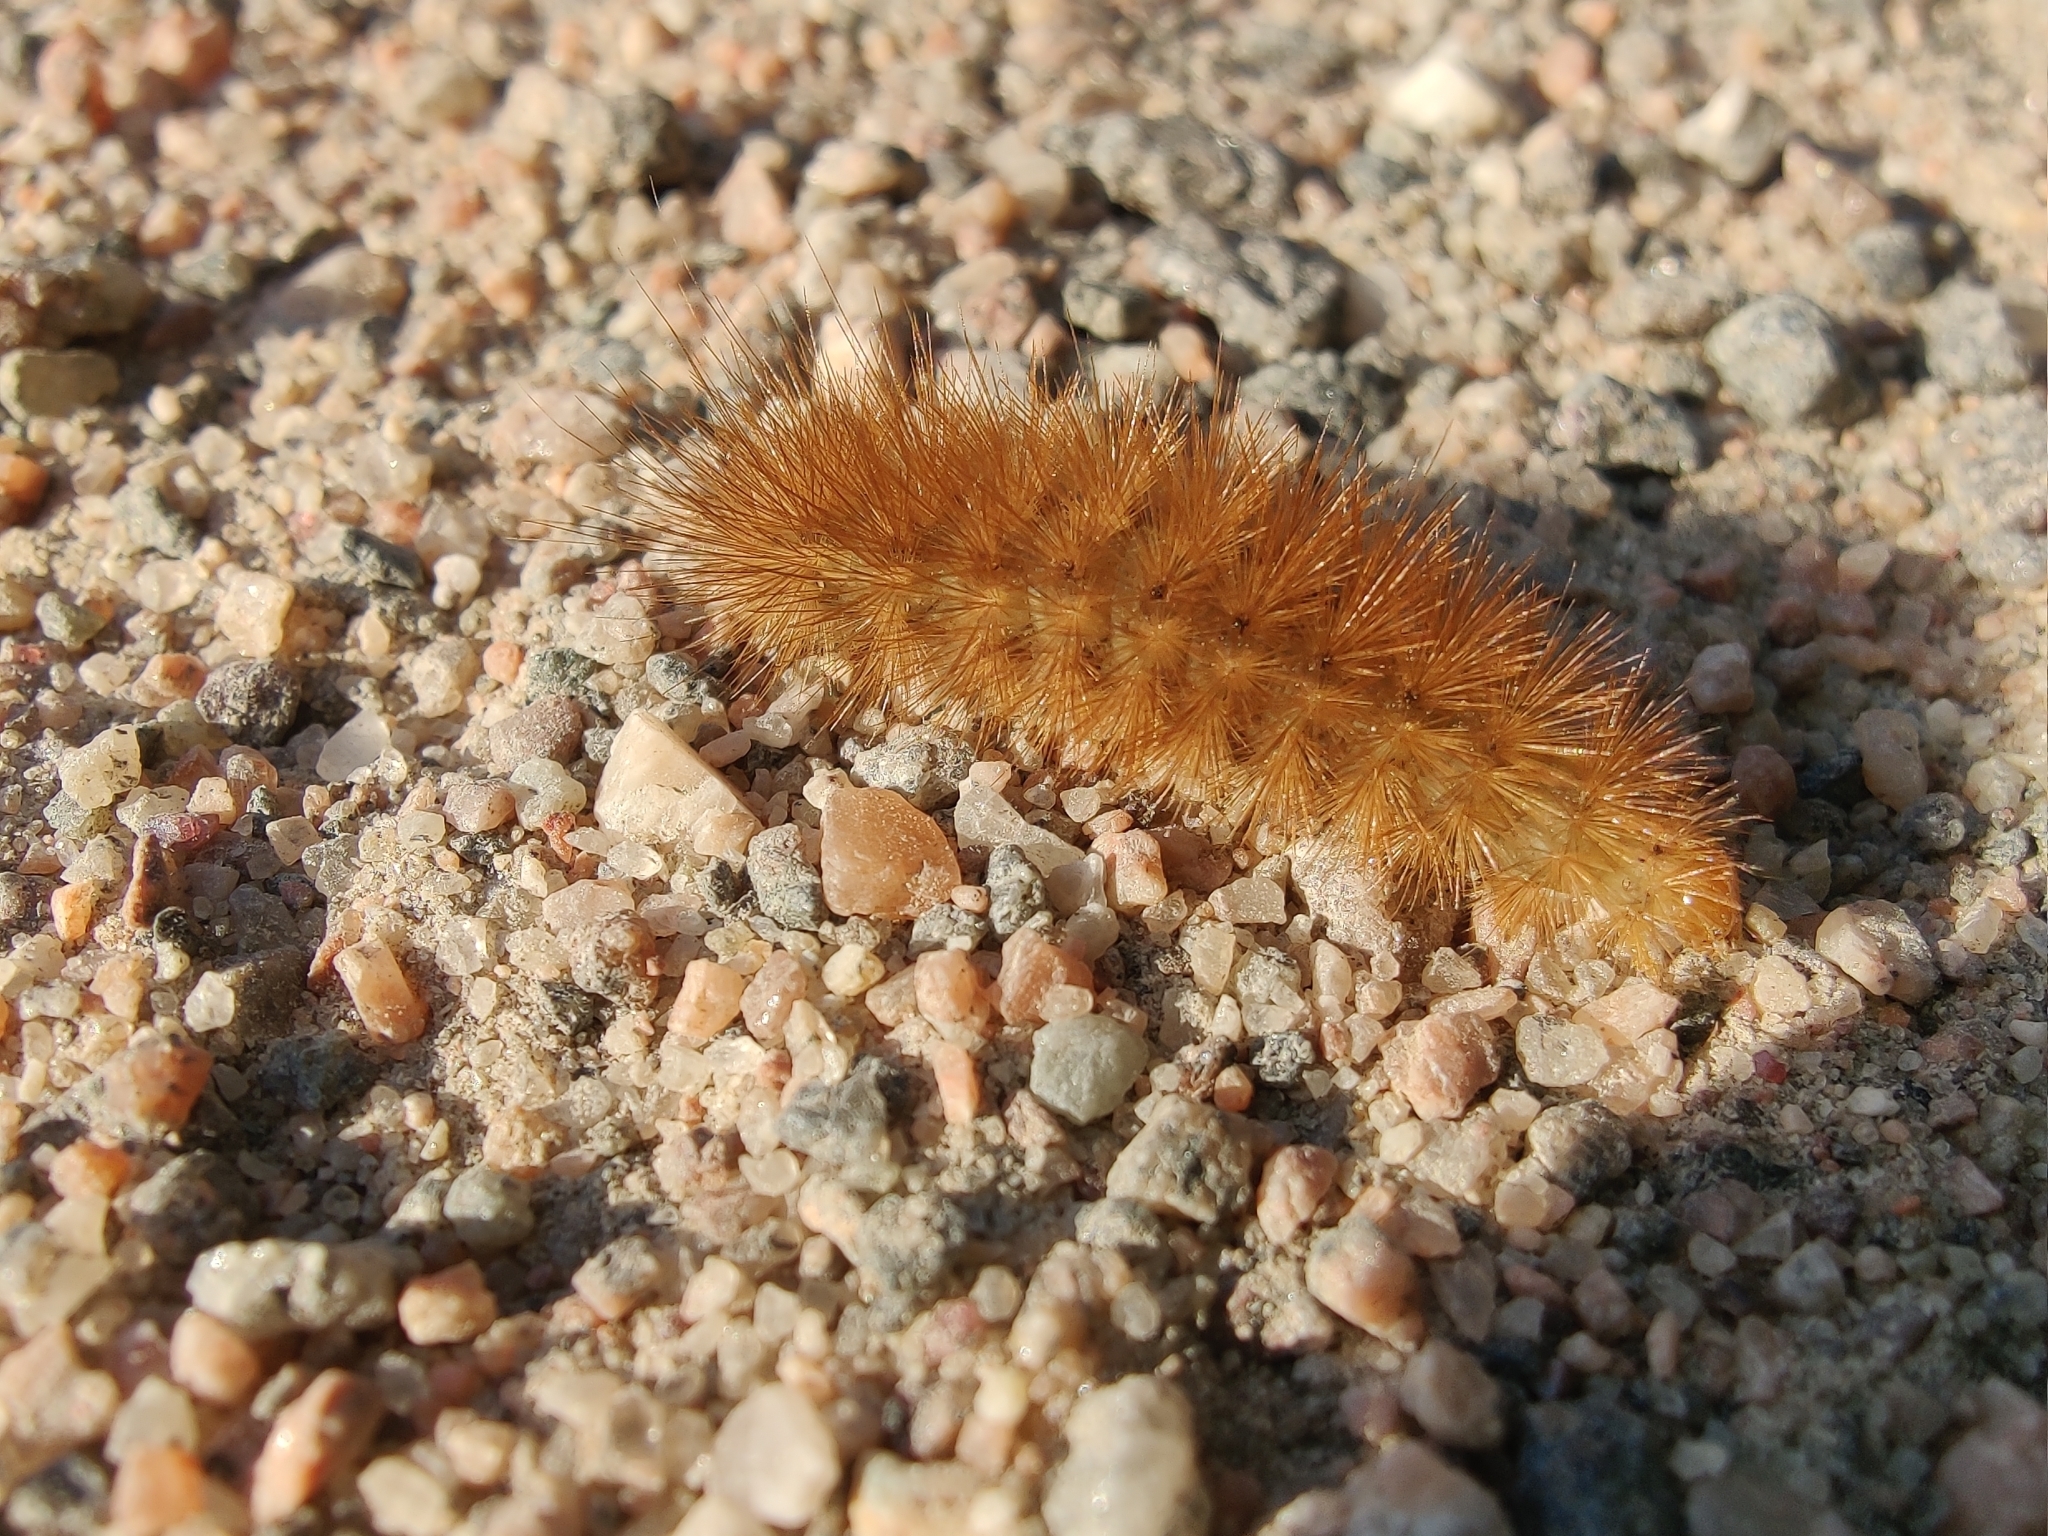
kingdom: Animalia
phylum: Arthropoda
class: Insecta
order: Lepidoptera
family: Erebidae
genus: Phragmatobia
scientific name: Phragmatobia fuliginosa
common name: Ruby tiger
